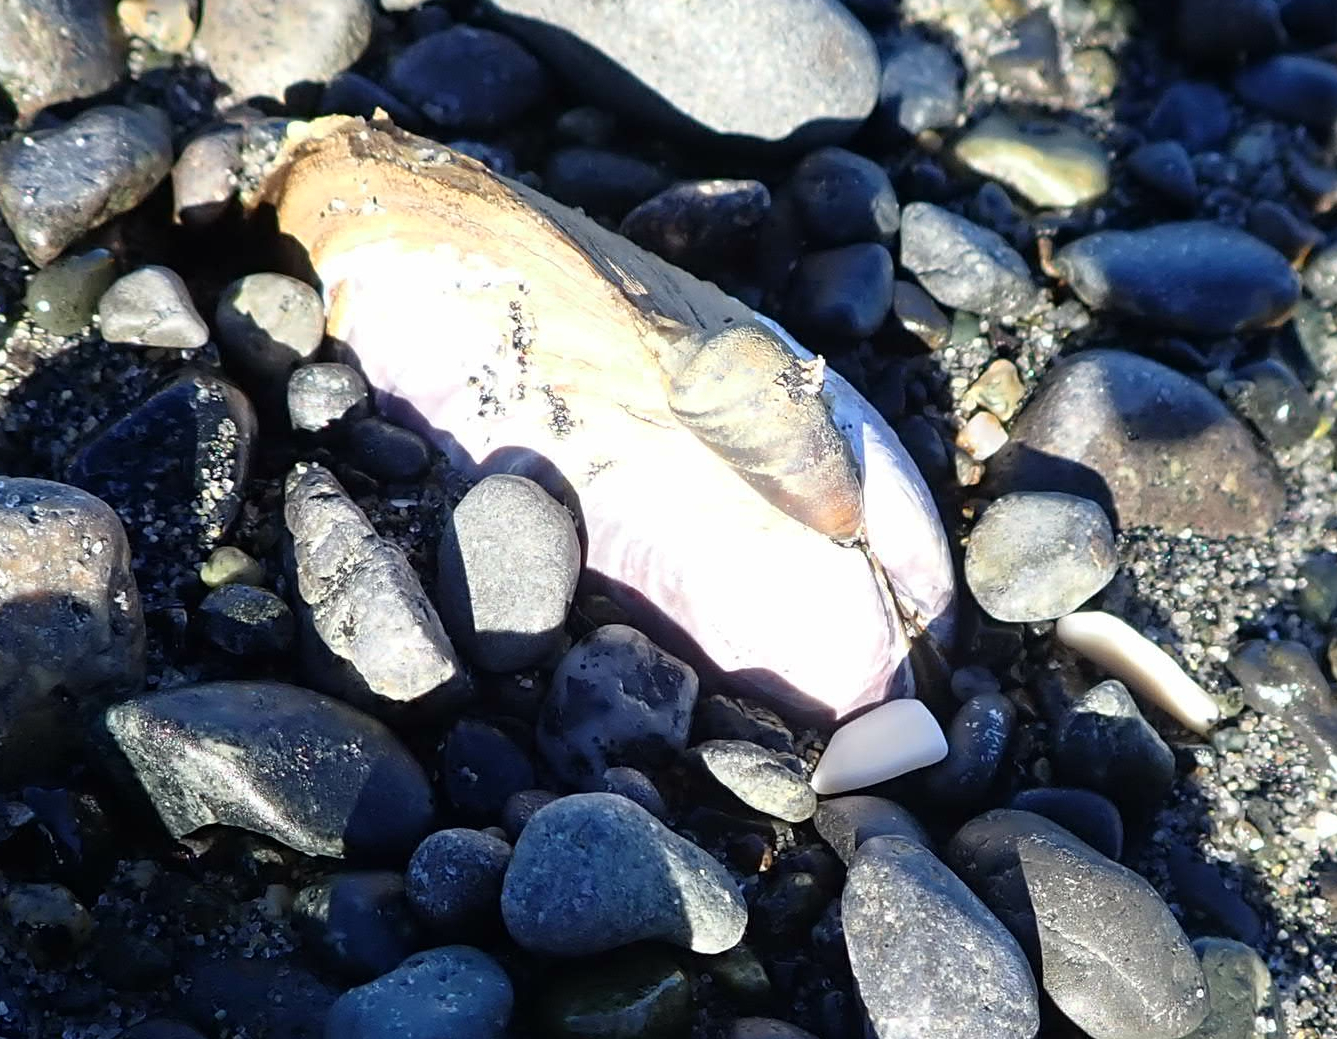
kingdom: Animalia
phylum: Mollusca
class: Bivalvia
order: Cardiida
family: Psammobiidae
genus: Nuttallia
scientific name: Nuttallia obscurata
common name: Purple mahogany-clam
